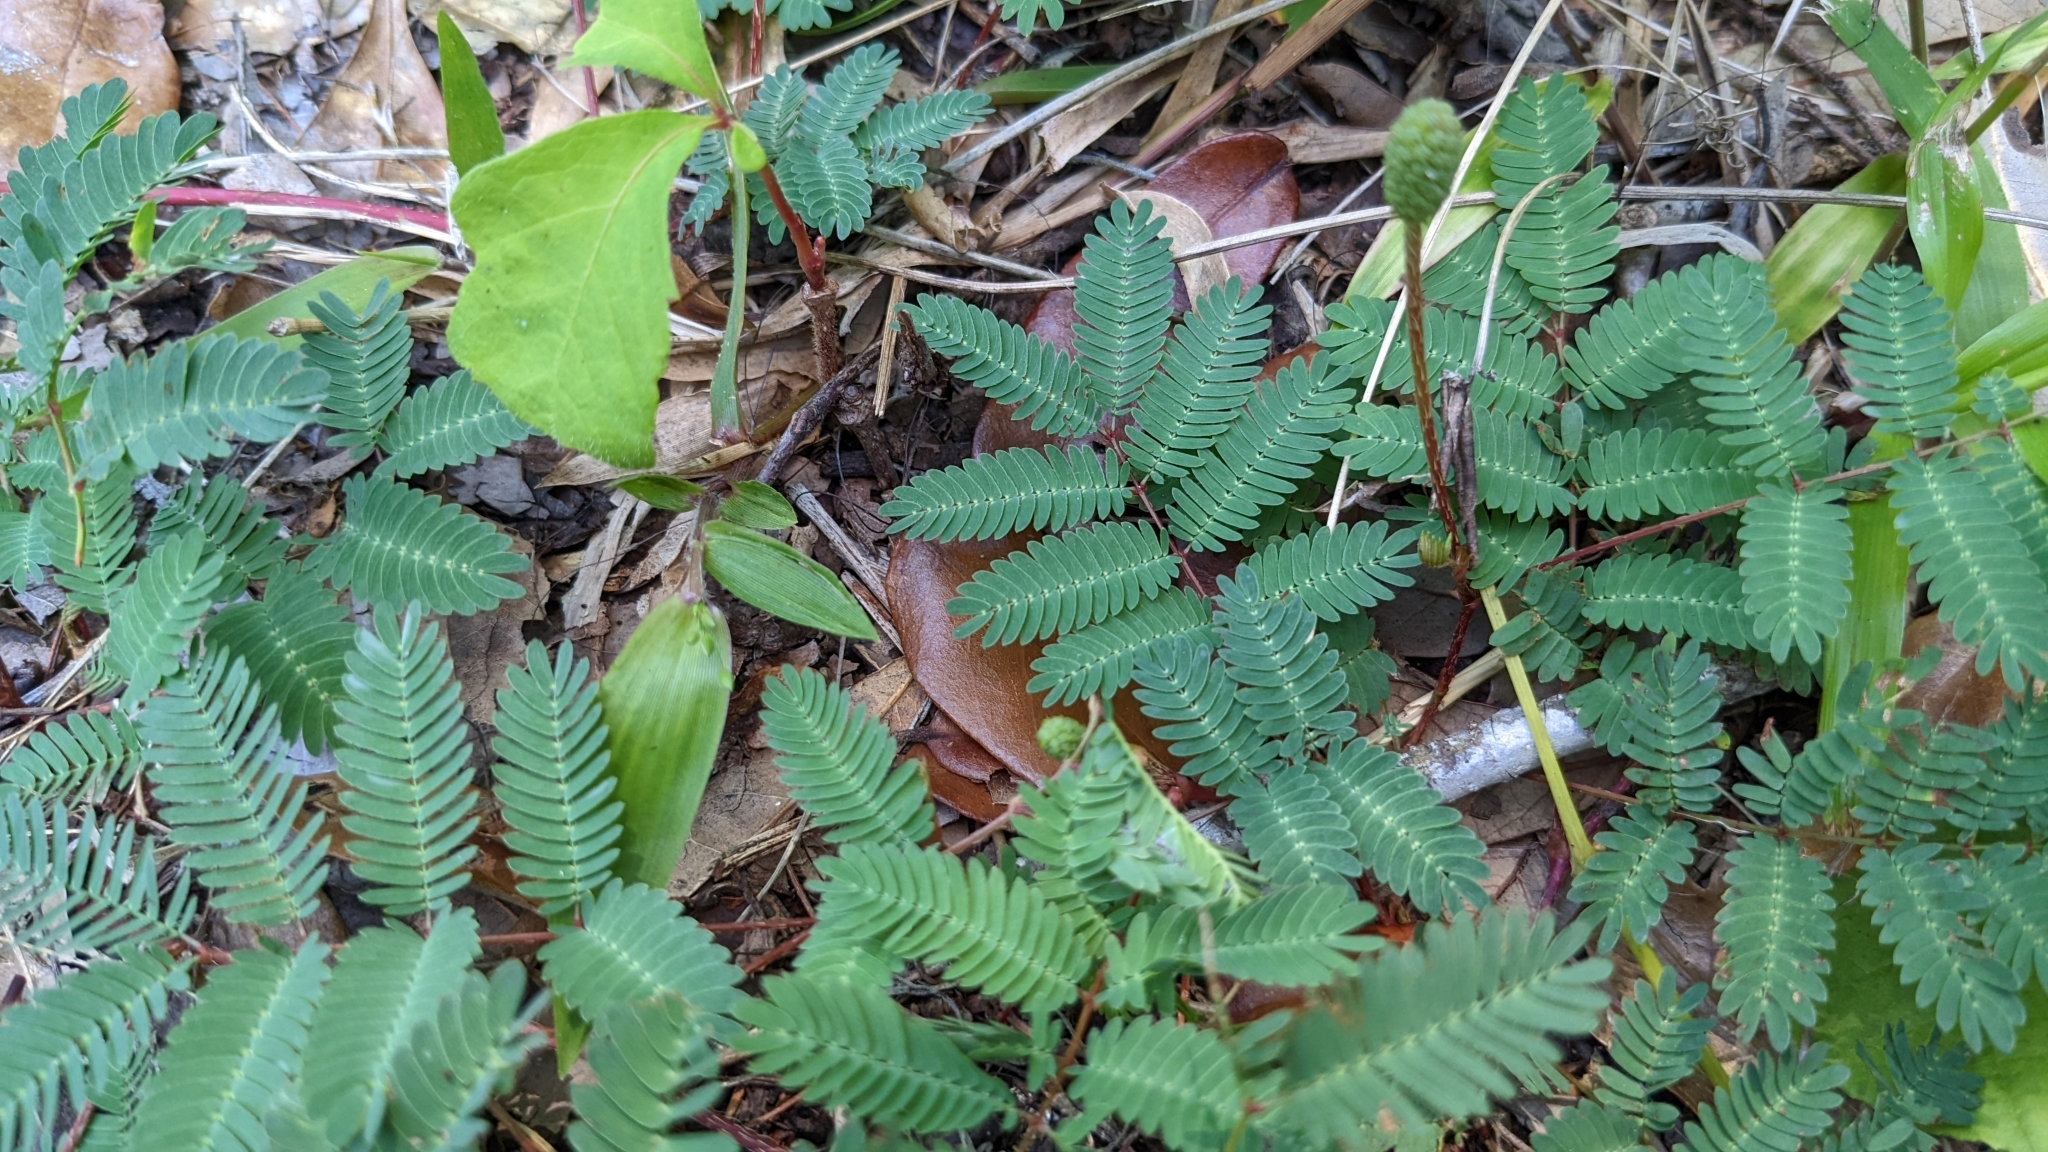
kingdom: Plantae
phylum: Tracheophyta
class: Magnoliopsida
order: Fabales
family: Fabaceae
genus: Mimosa
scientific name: Mimosa strigillosa
